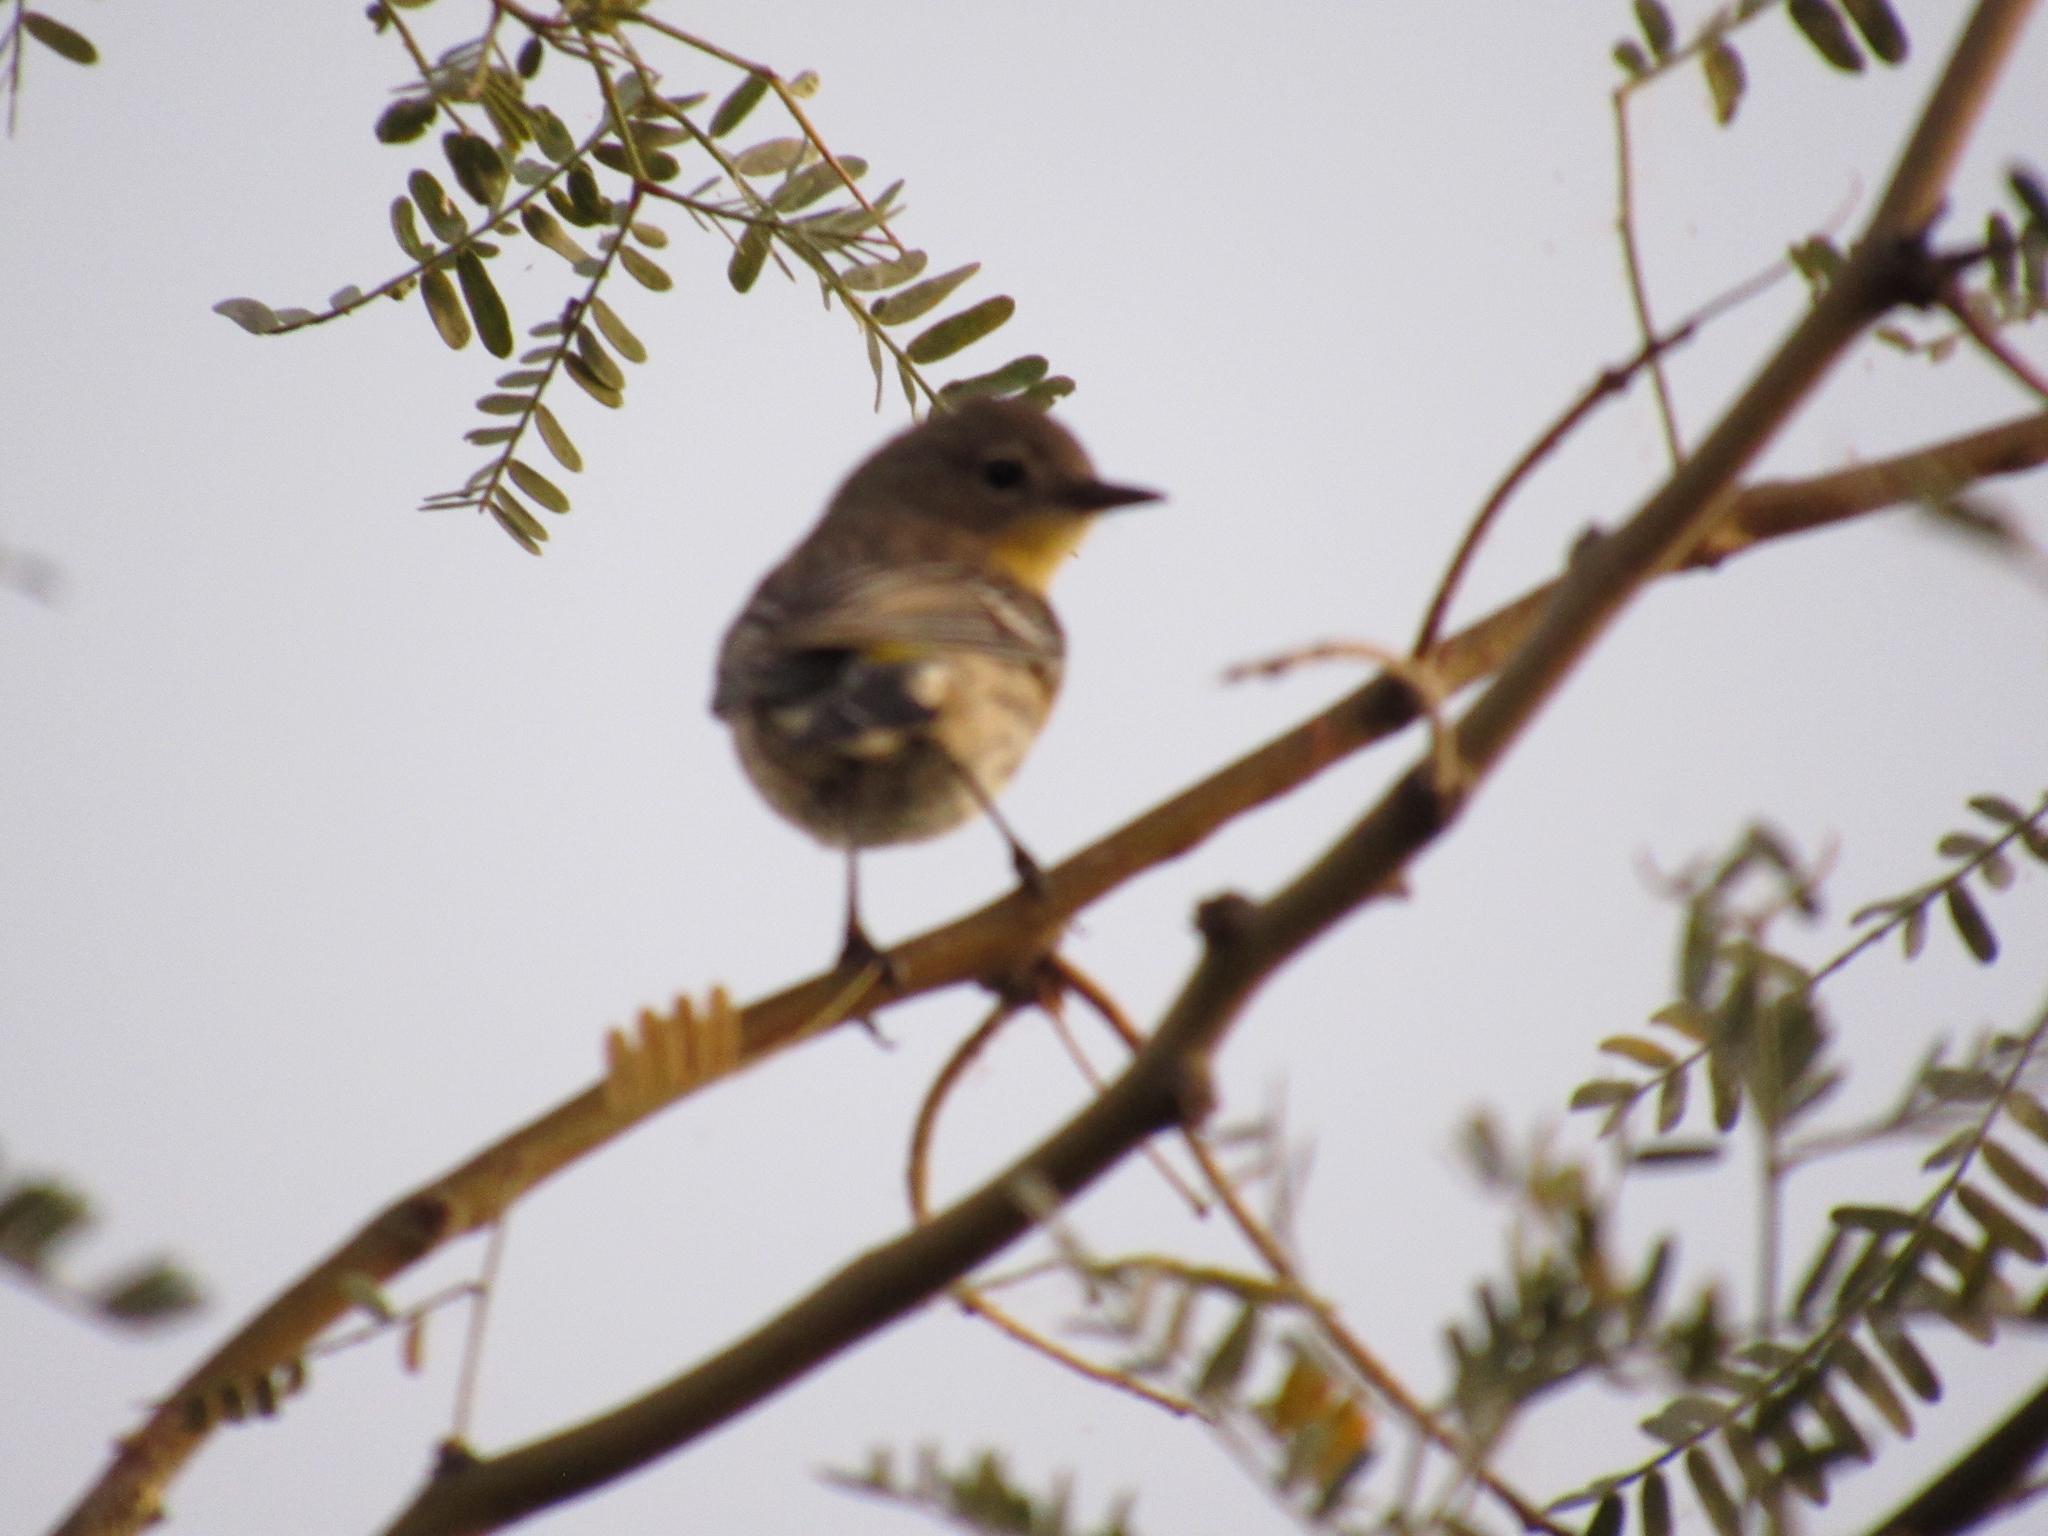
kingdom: Animalia
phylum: Chordata
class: Aves
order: Passeriformes
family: Parulidae
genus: Setophaga
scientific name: Setophaga coronata
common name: Myrtle warbler
